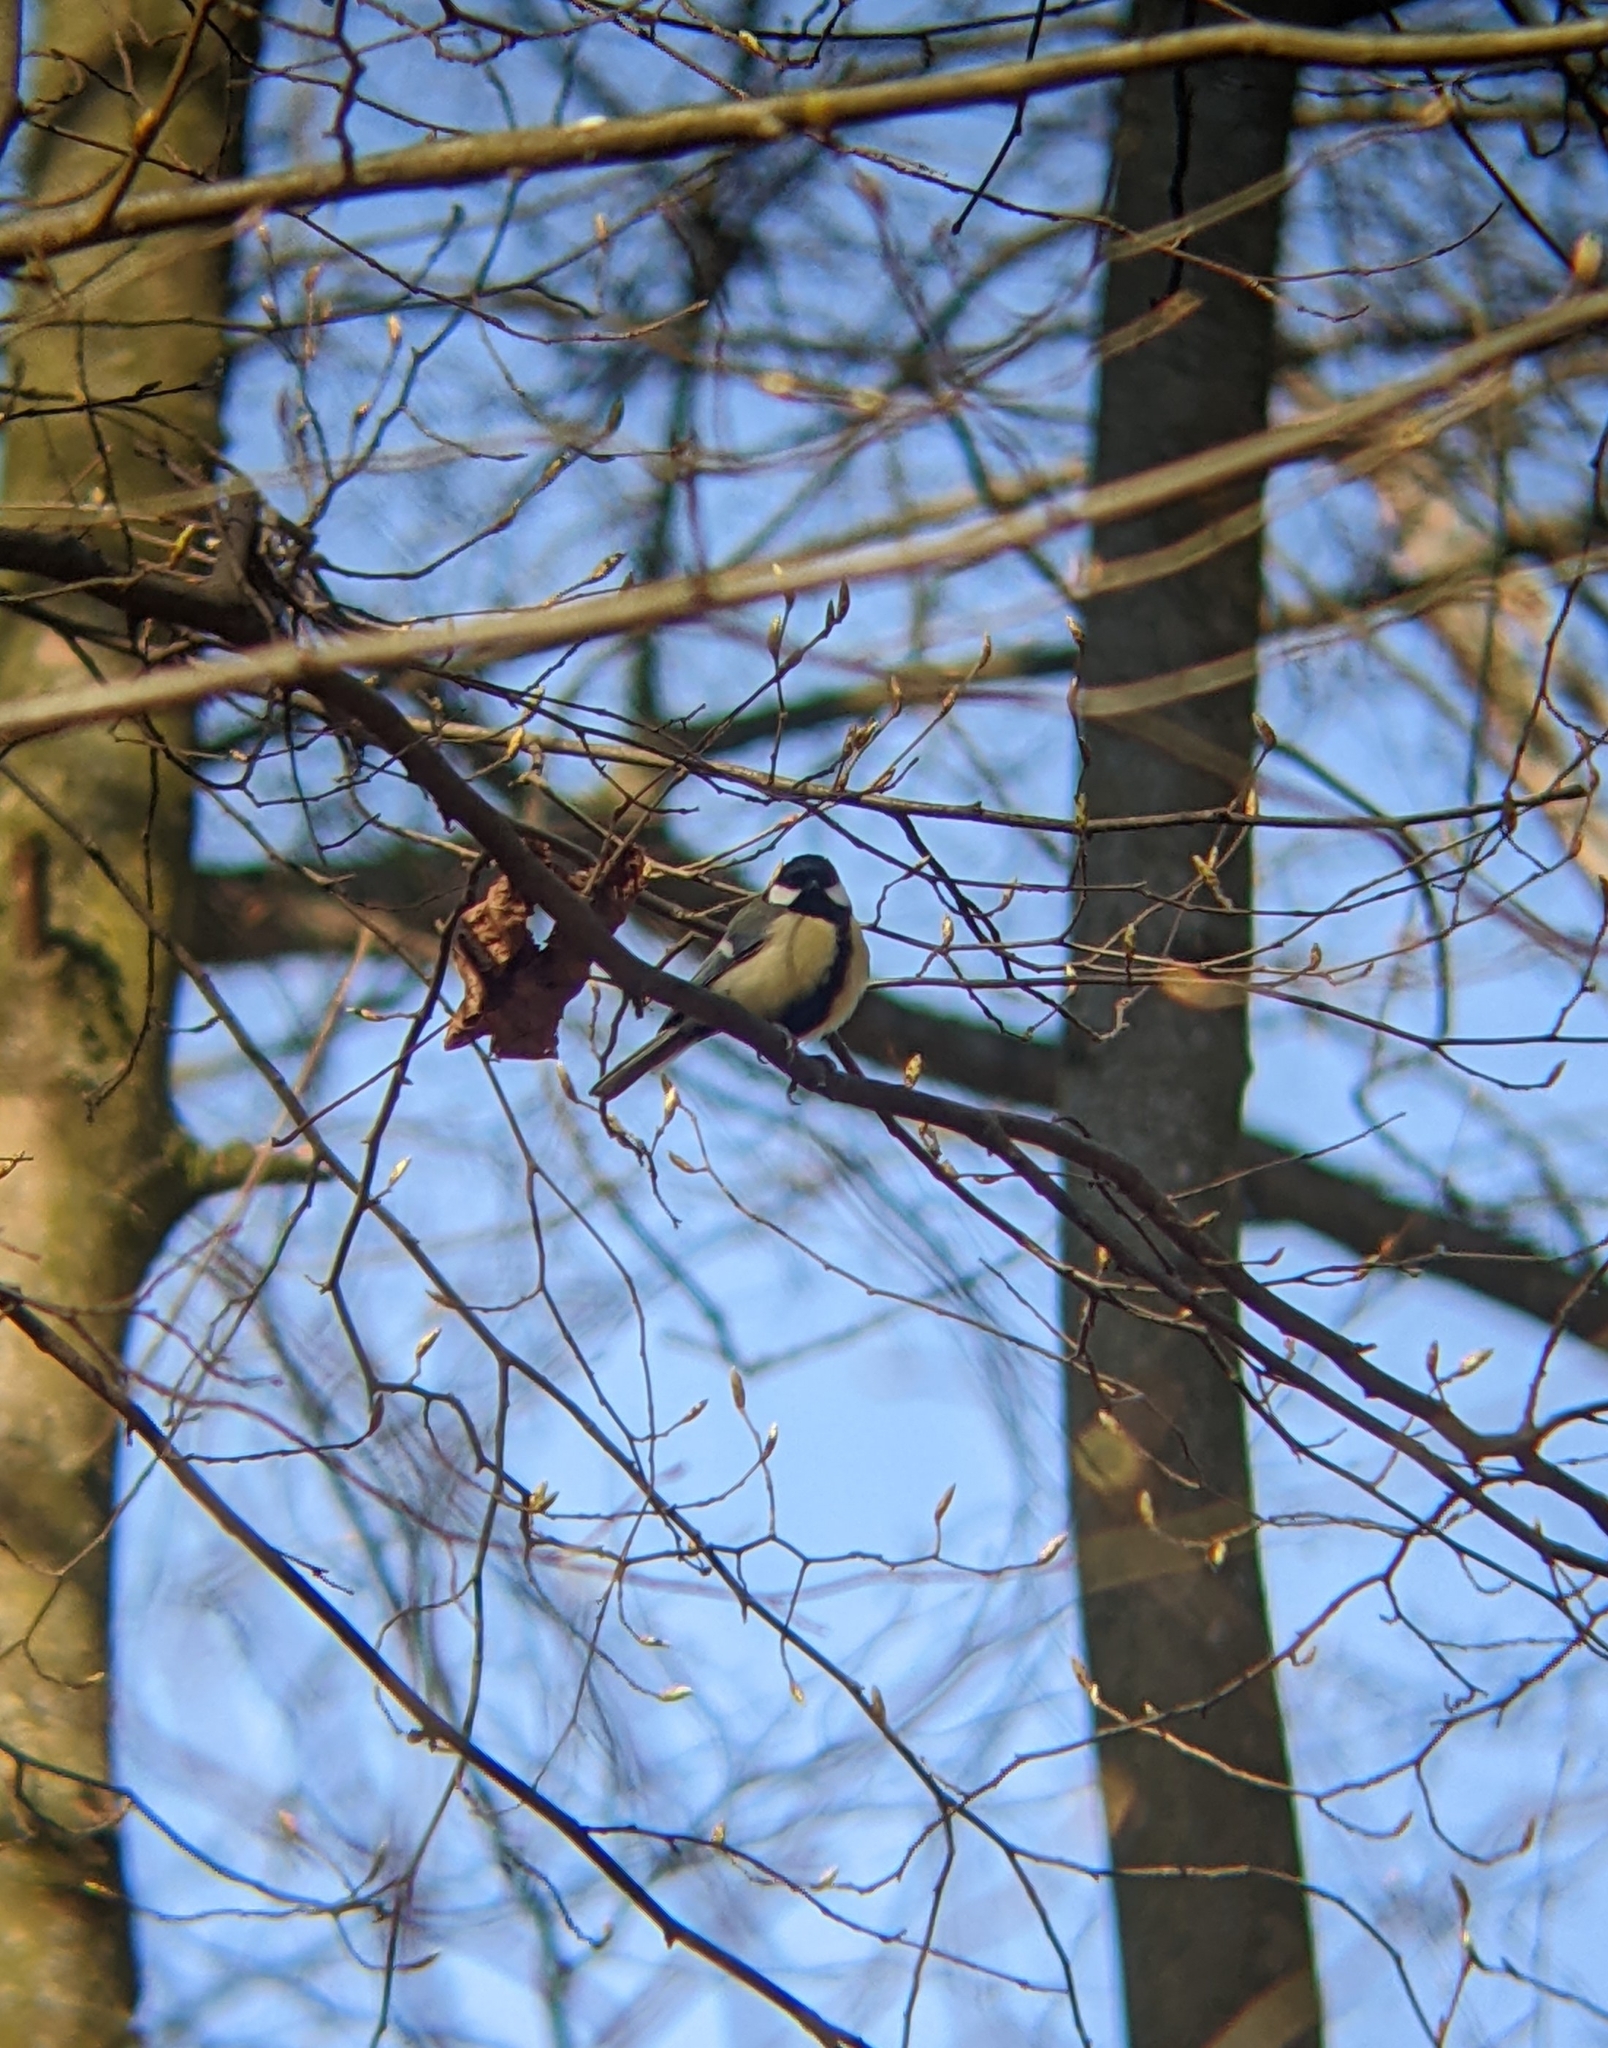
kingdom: Animalia
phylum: Chordata
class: Aves
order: Passeriformes
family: Paridae
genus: Parus
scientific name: Parus major
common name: Great tit
